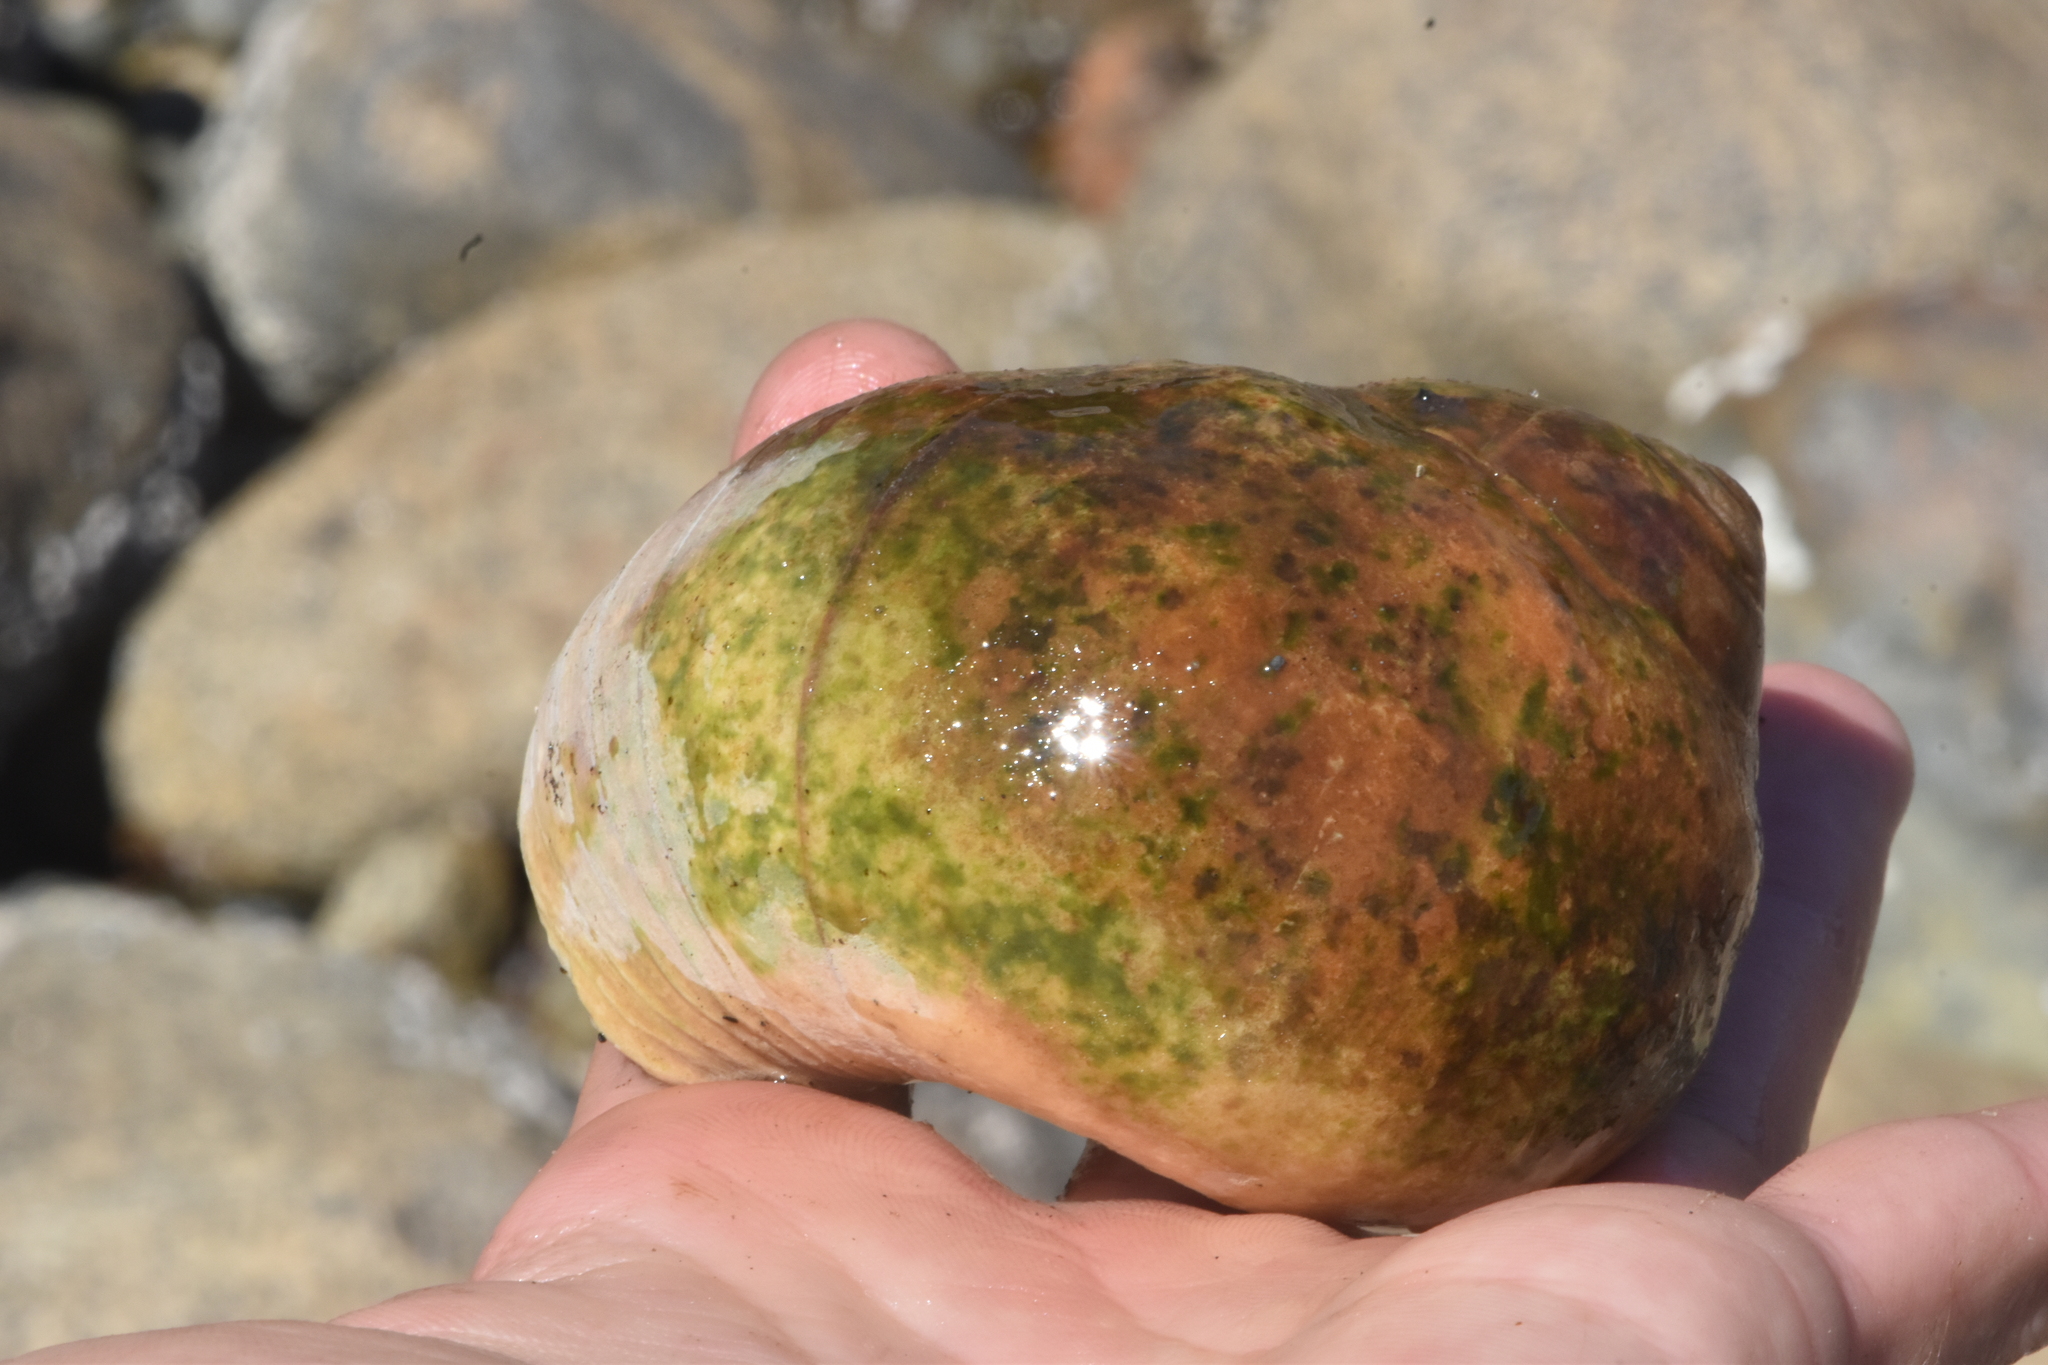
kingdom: Animalia
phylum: Mollusca
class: Gastropoda
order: Littorinimorpha
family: Naticidae
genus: Neverita
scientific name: Neverita lewisii
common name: Lewis' moonsnail
